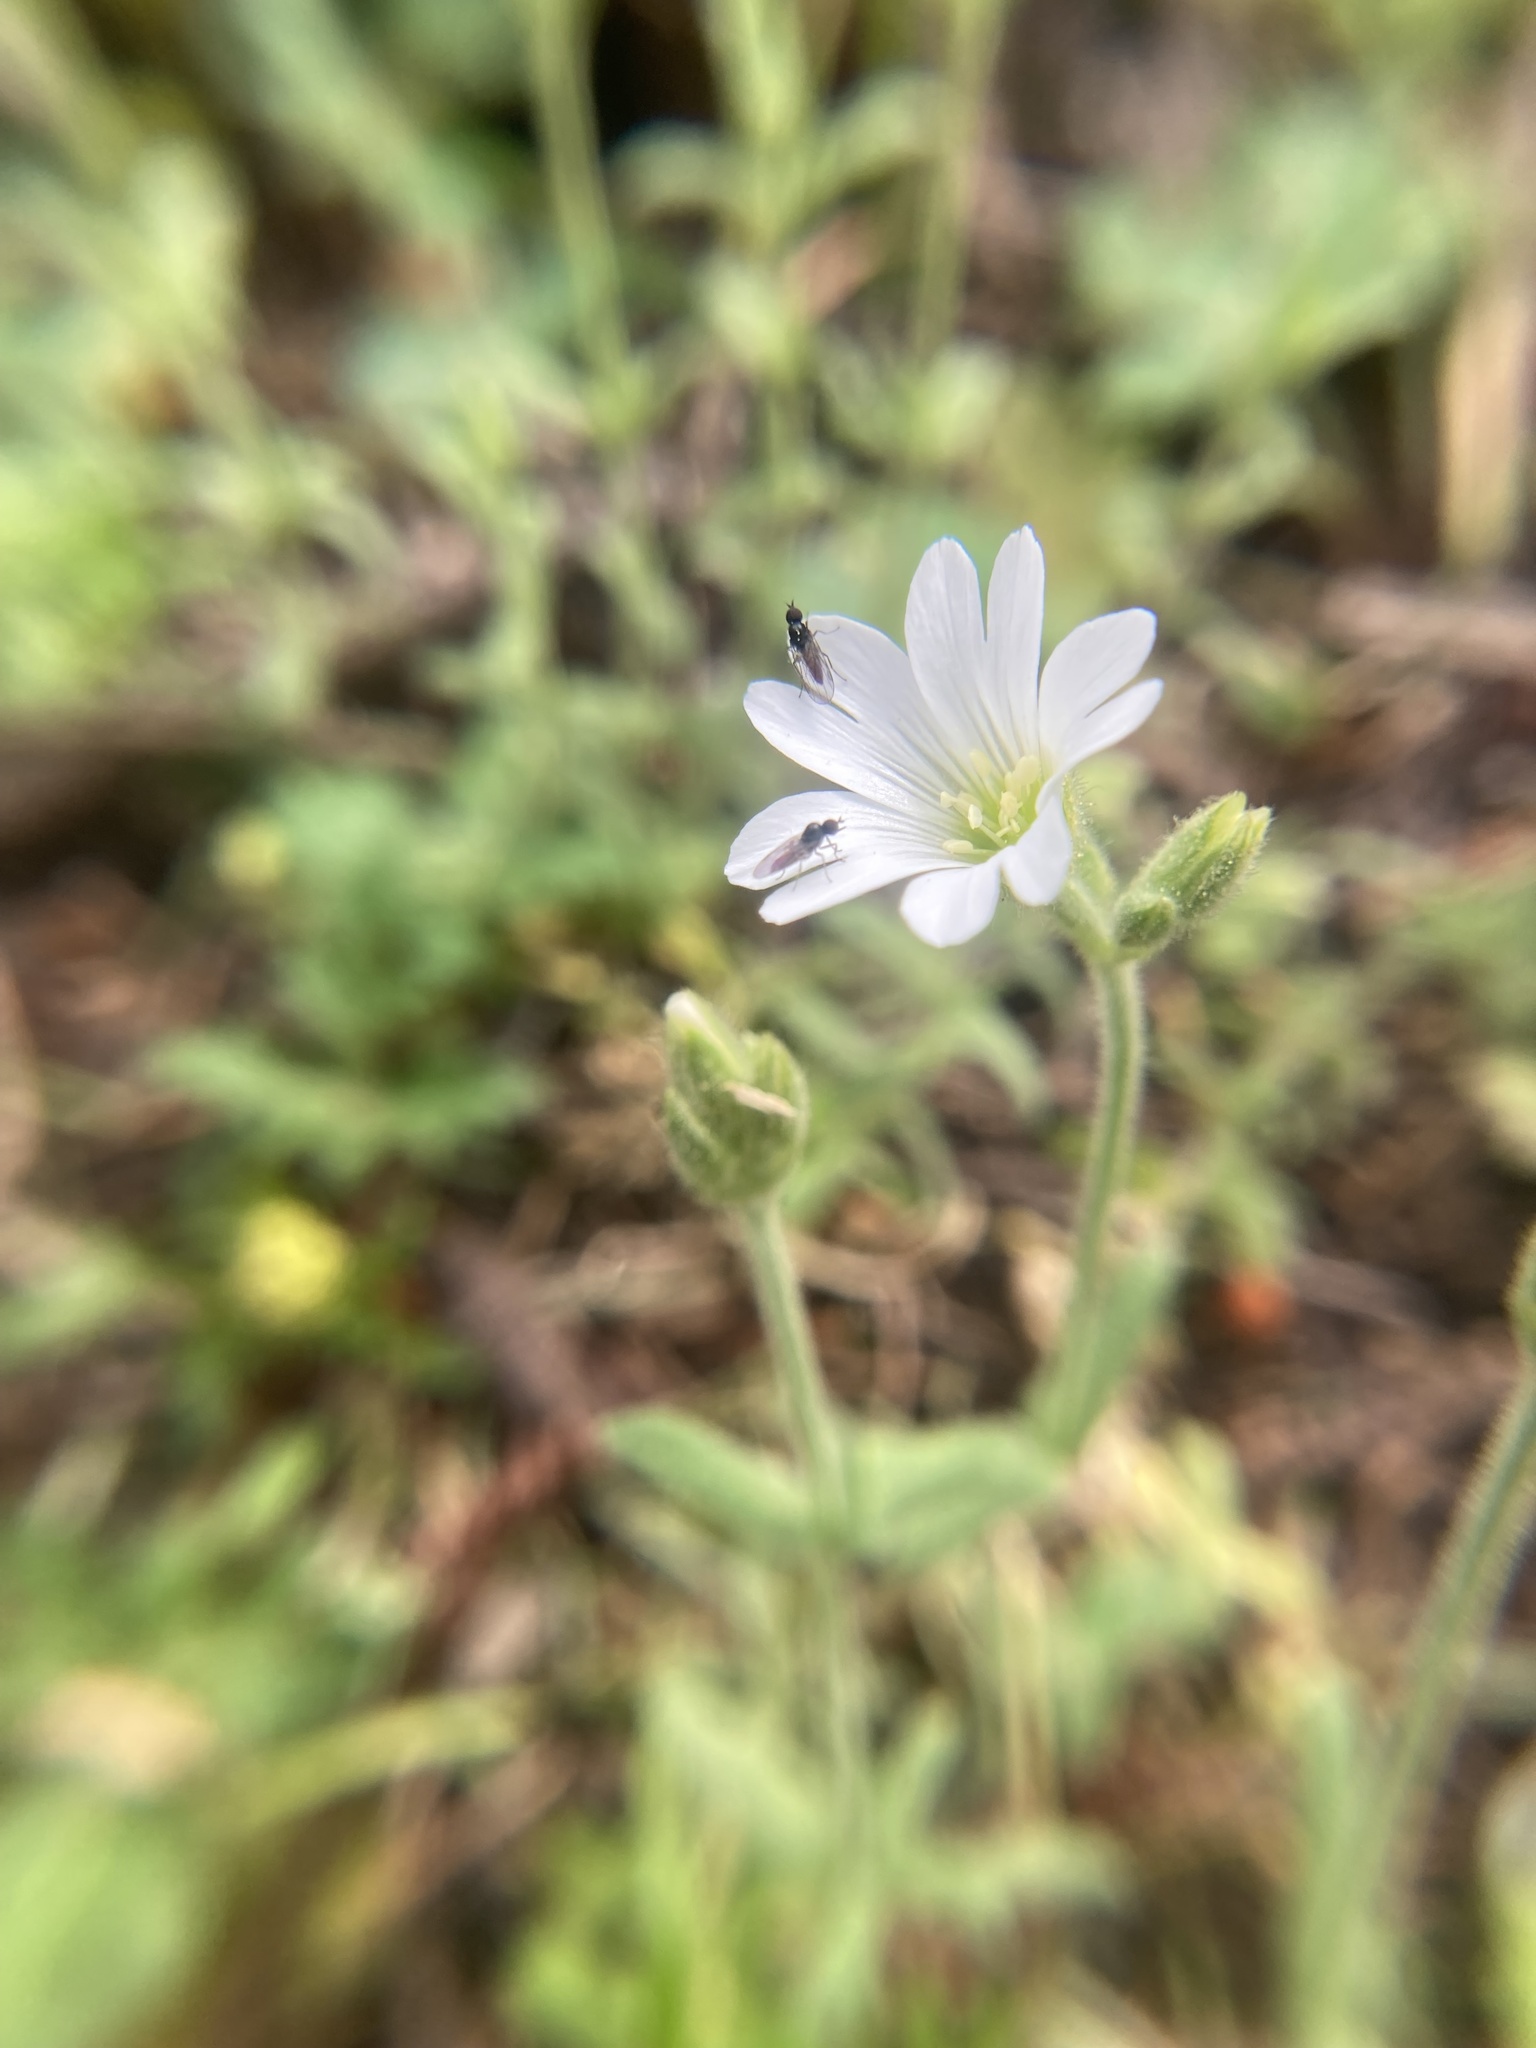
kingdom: Plantae
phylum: Tracheophyta
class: Magnoliopsida
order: Caryophyllales
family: Caryophyllaceae
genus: Cerastium
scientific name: Cerastium arvense
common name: Field mouse-ear
